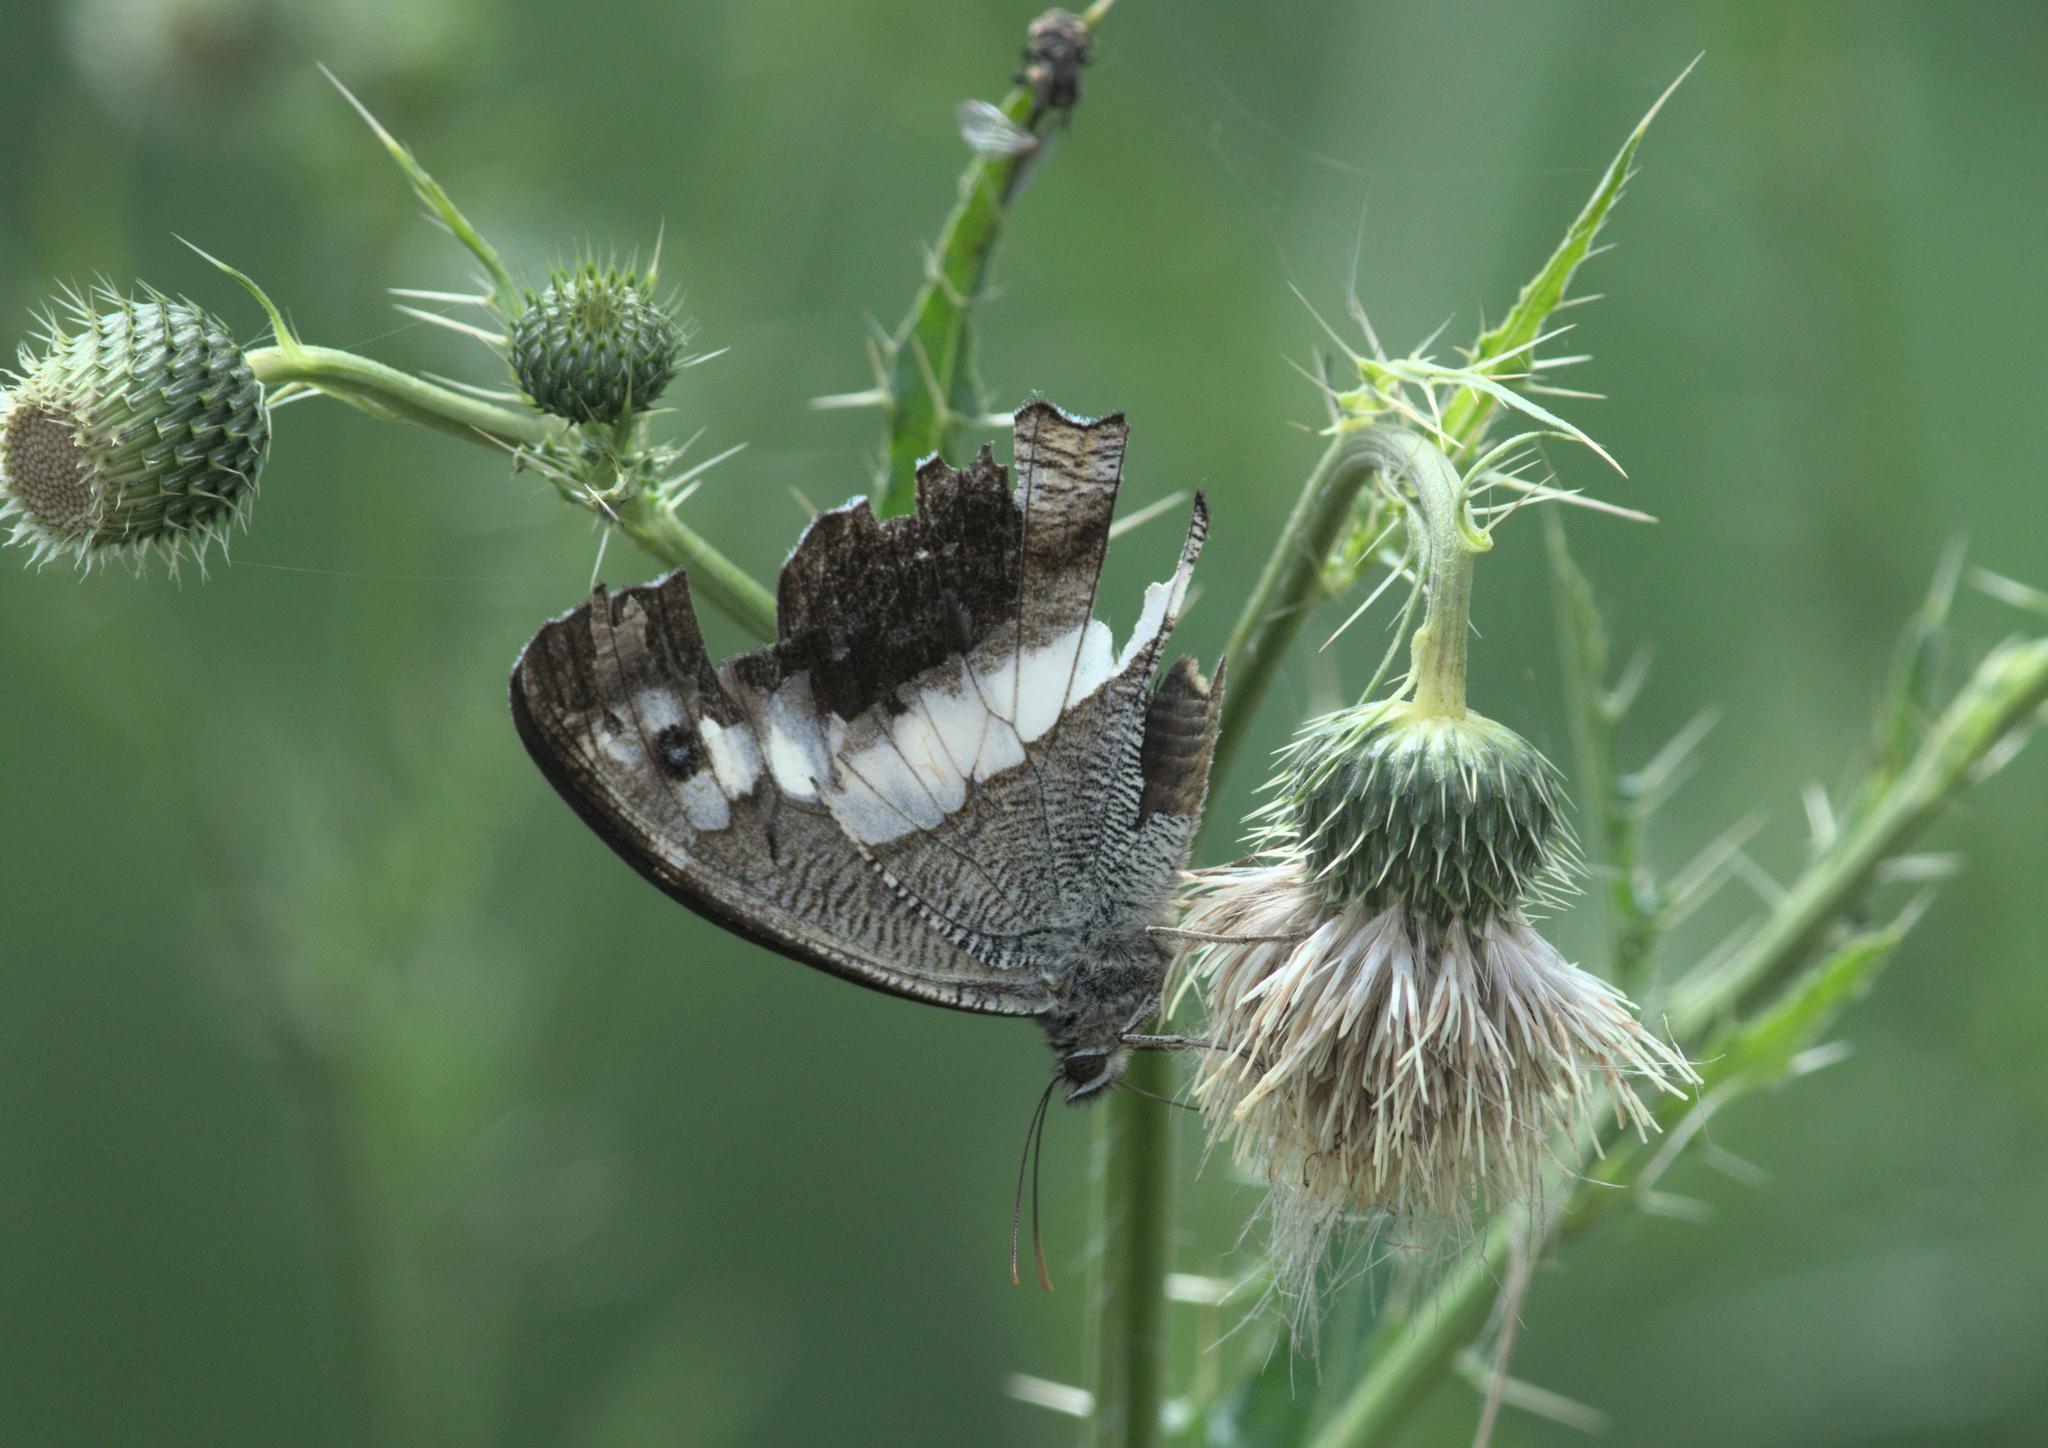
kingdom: Animalia
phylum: Arthropoda
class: Insecta
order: Lepidoptera
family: Nymphalidae
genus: Satyrus
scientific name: Satyrus
